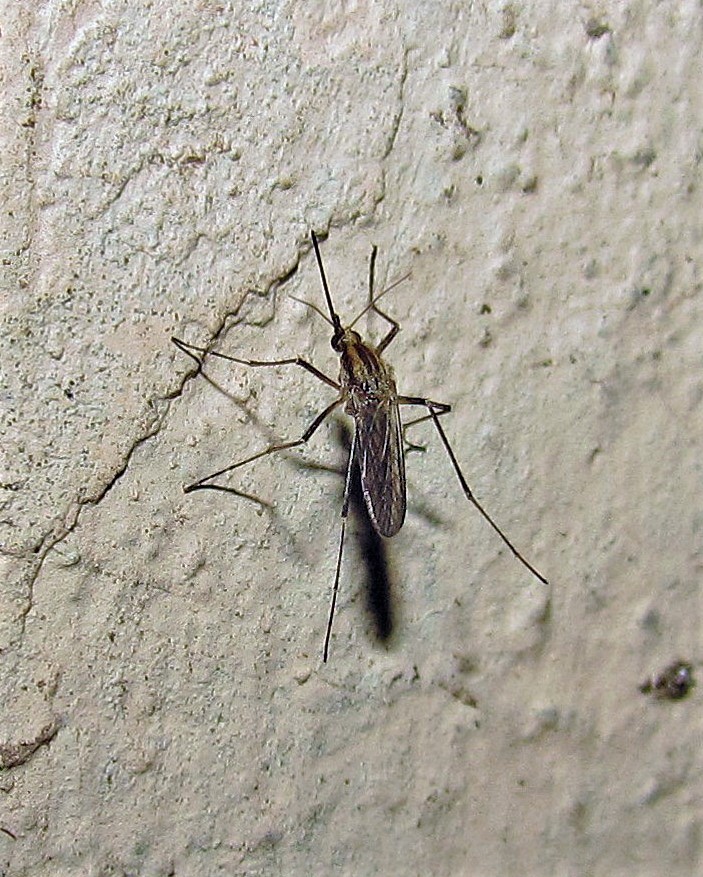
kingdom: Animalia
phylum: Arthropoda
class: Insecta
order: Diptera
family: Culicidae
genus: Aedes
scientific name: Aedes albifasciatus
